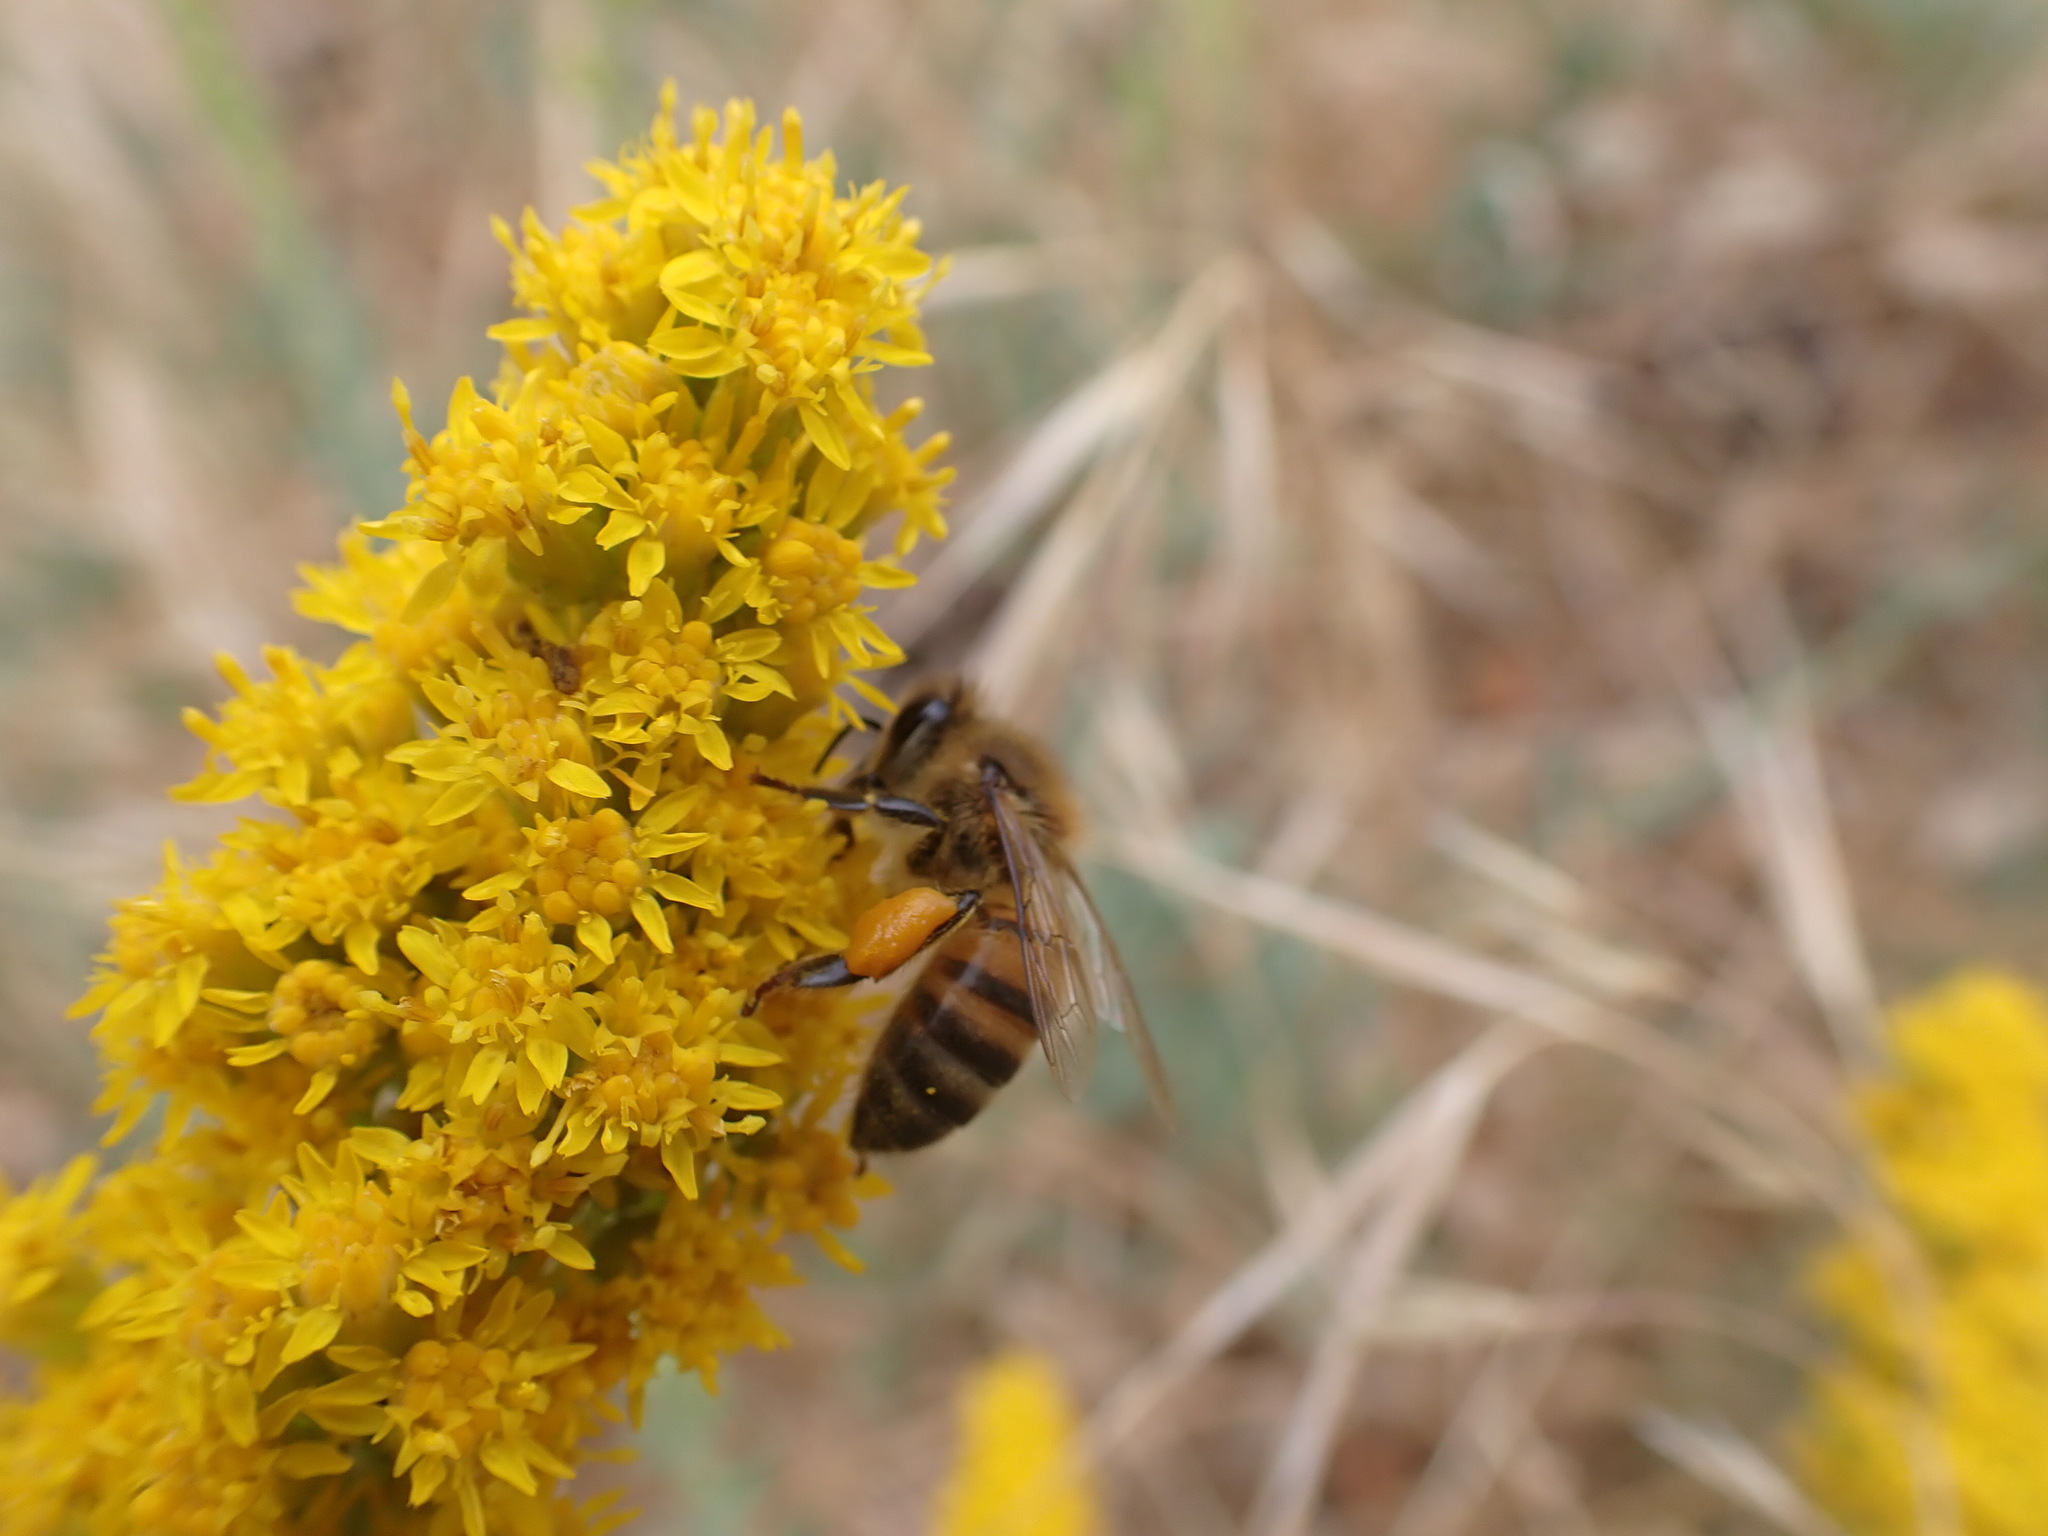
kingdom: Animalia
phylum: Arthropoda
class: Insecta
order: Hymenoptera
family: Apidae
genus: Apis
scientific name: Apis mellifera
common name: Honey bee
